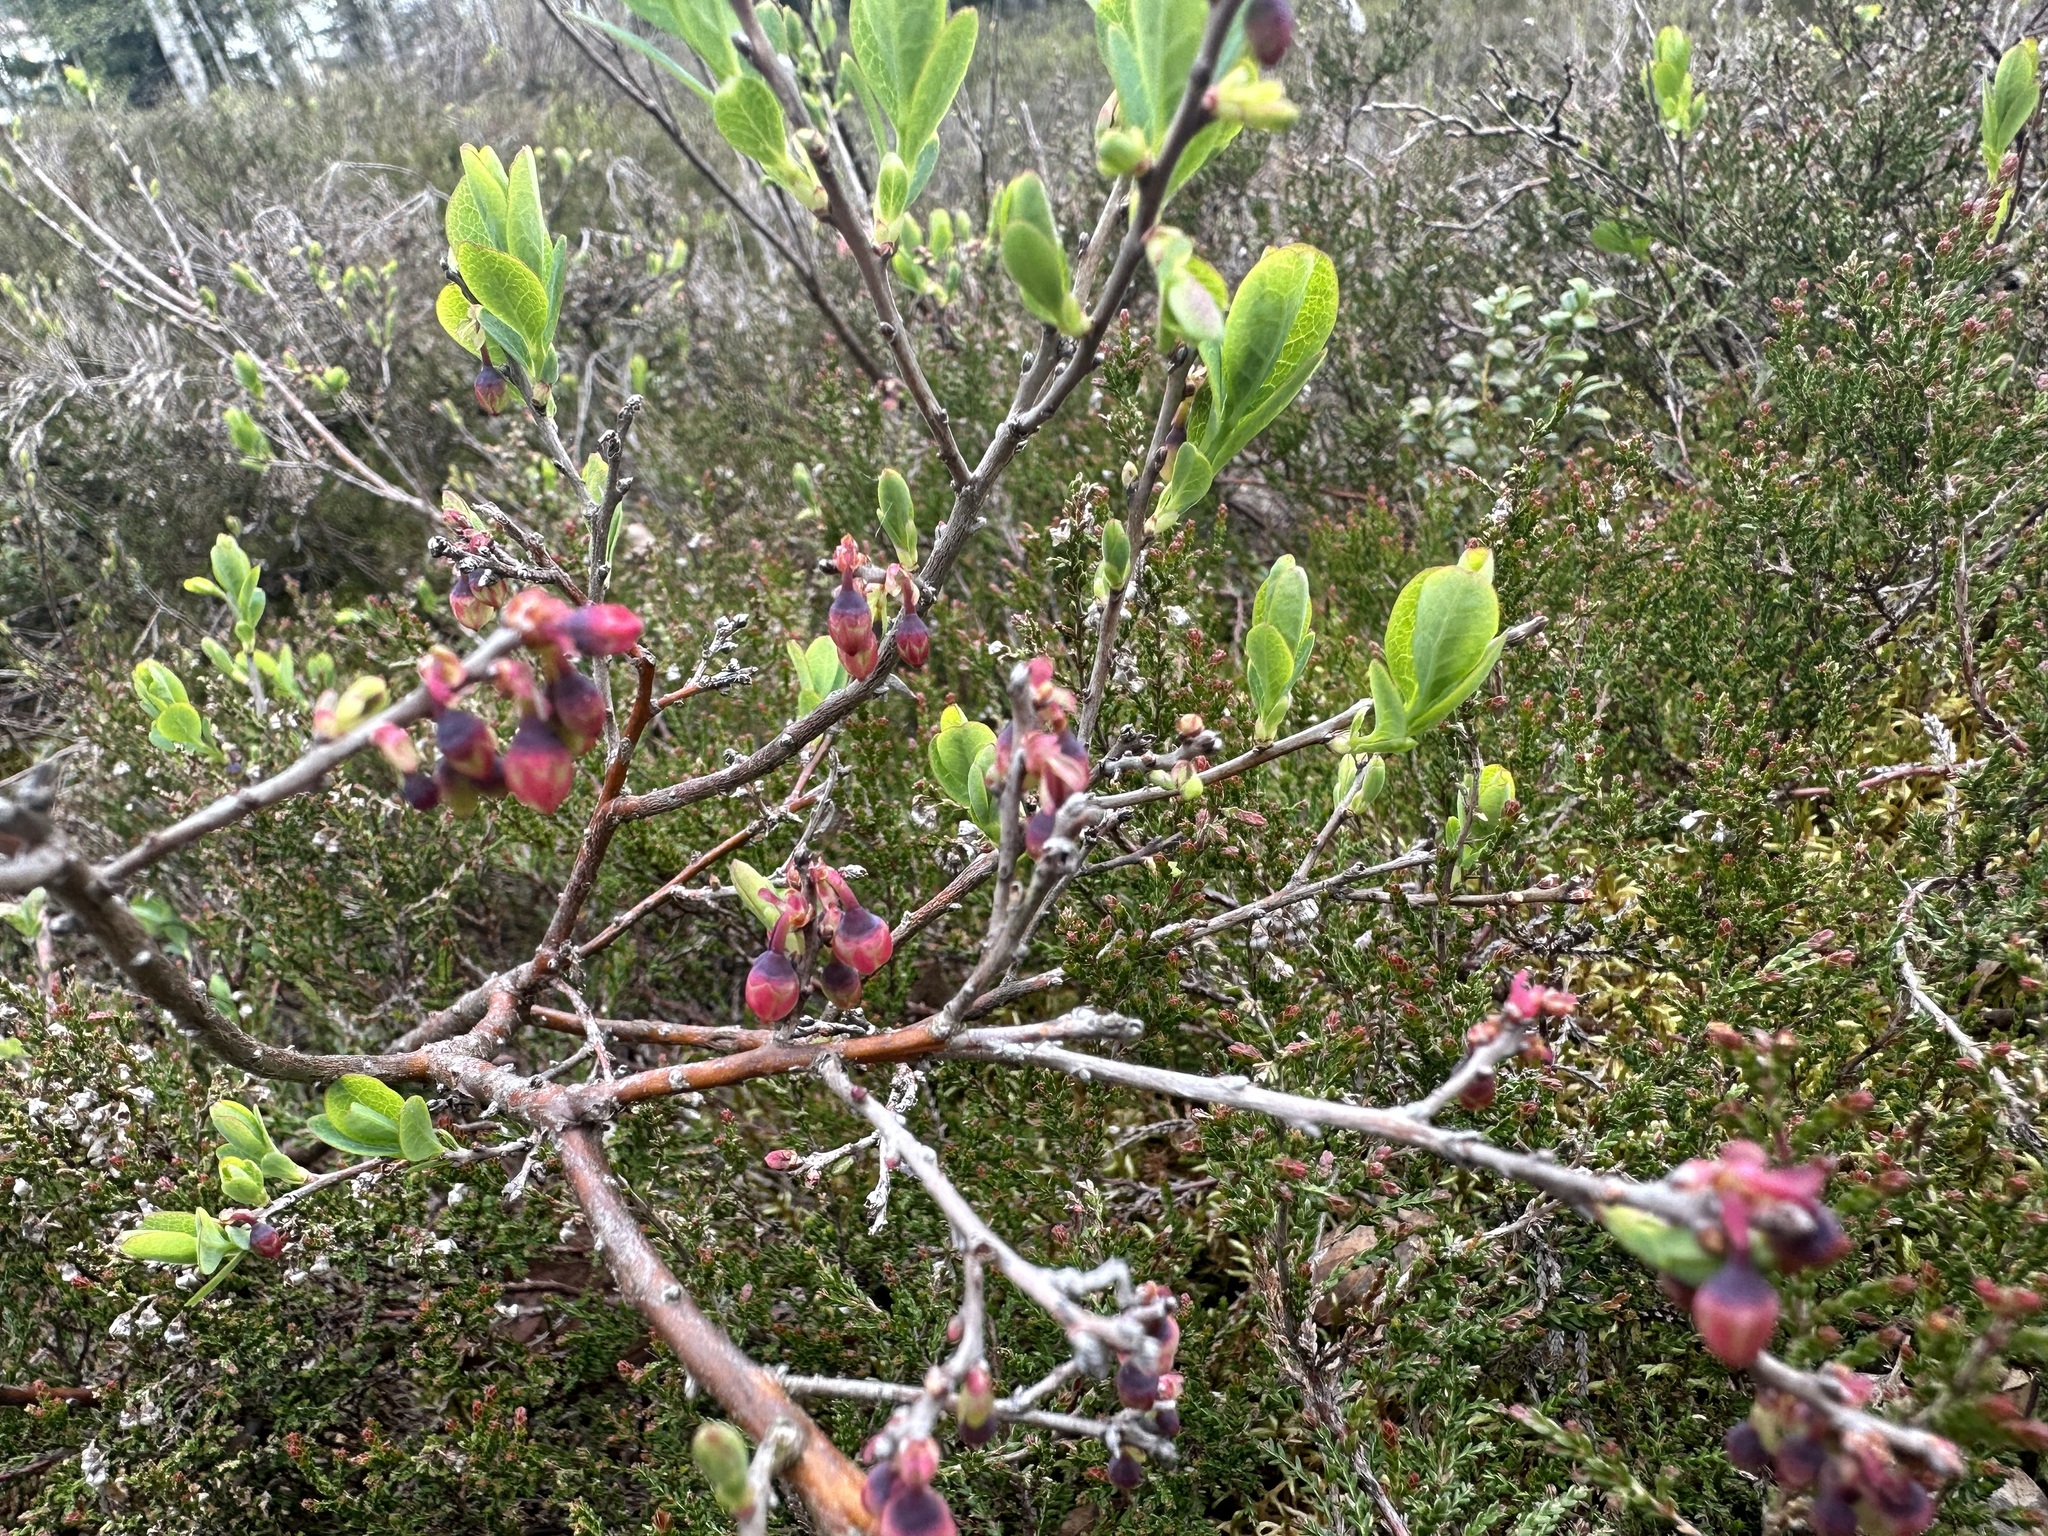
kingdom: Plantae
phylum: Tracheophyta
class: Magnoliopsida
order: Ericales
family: Ericaceae
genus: Vaccinium
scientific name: Vaccinium uliginosum
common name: Bog bilberry
